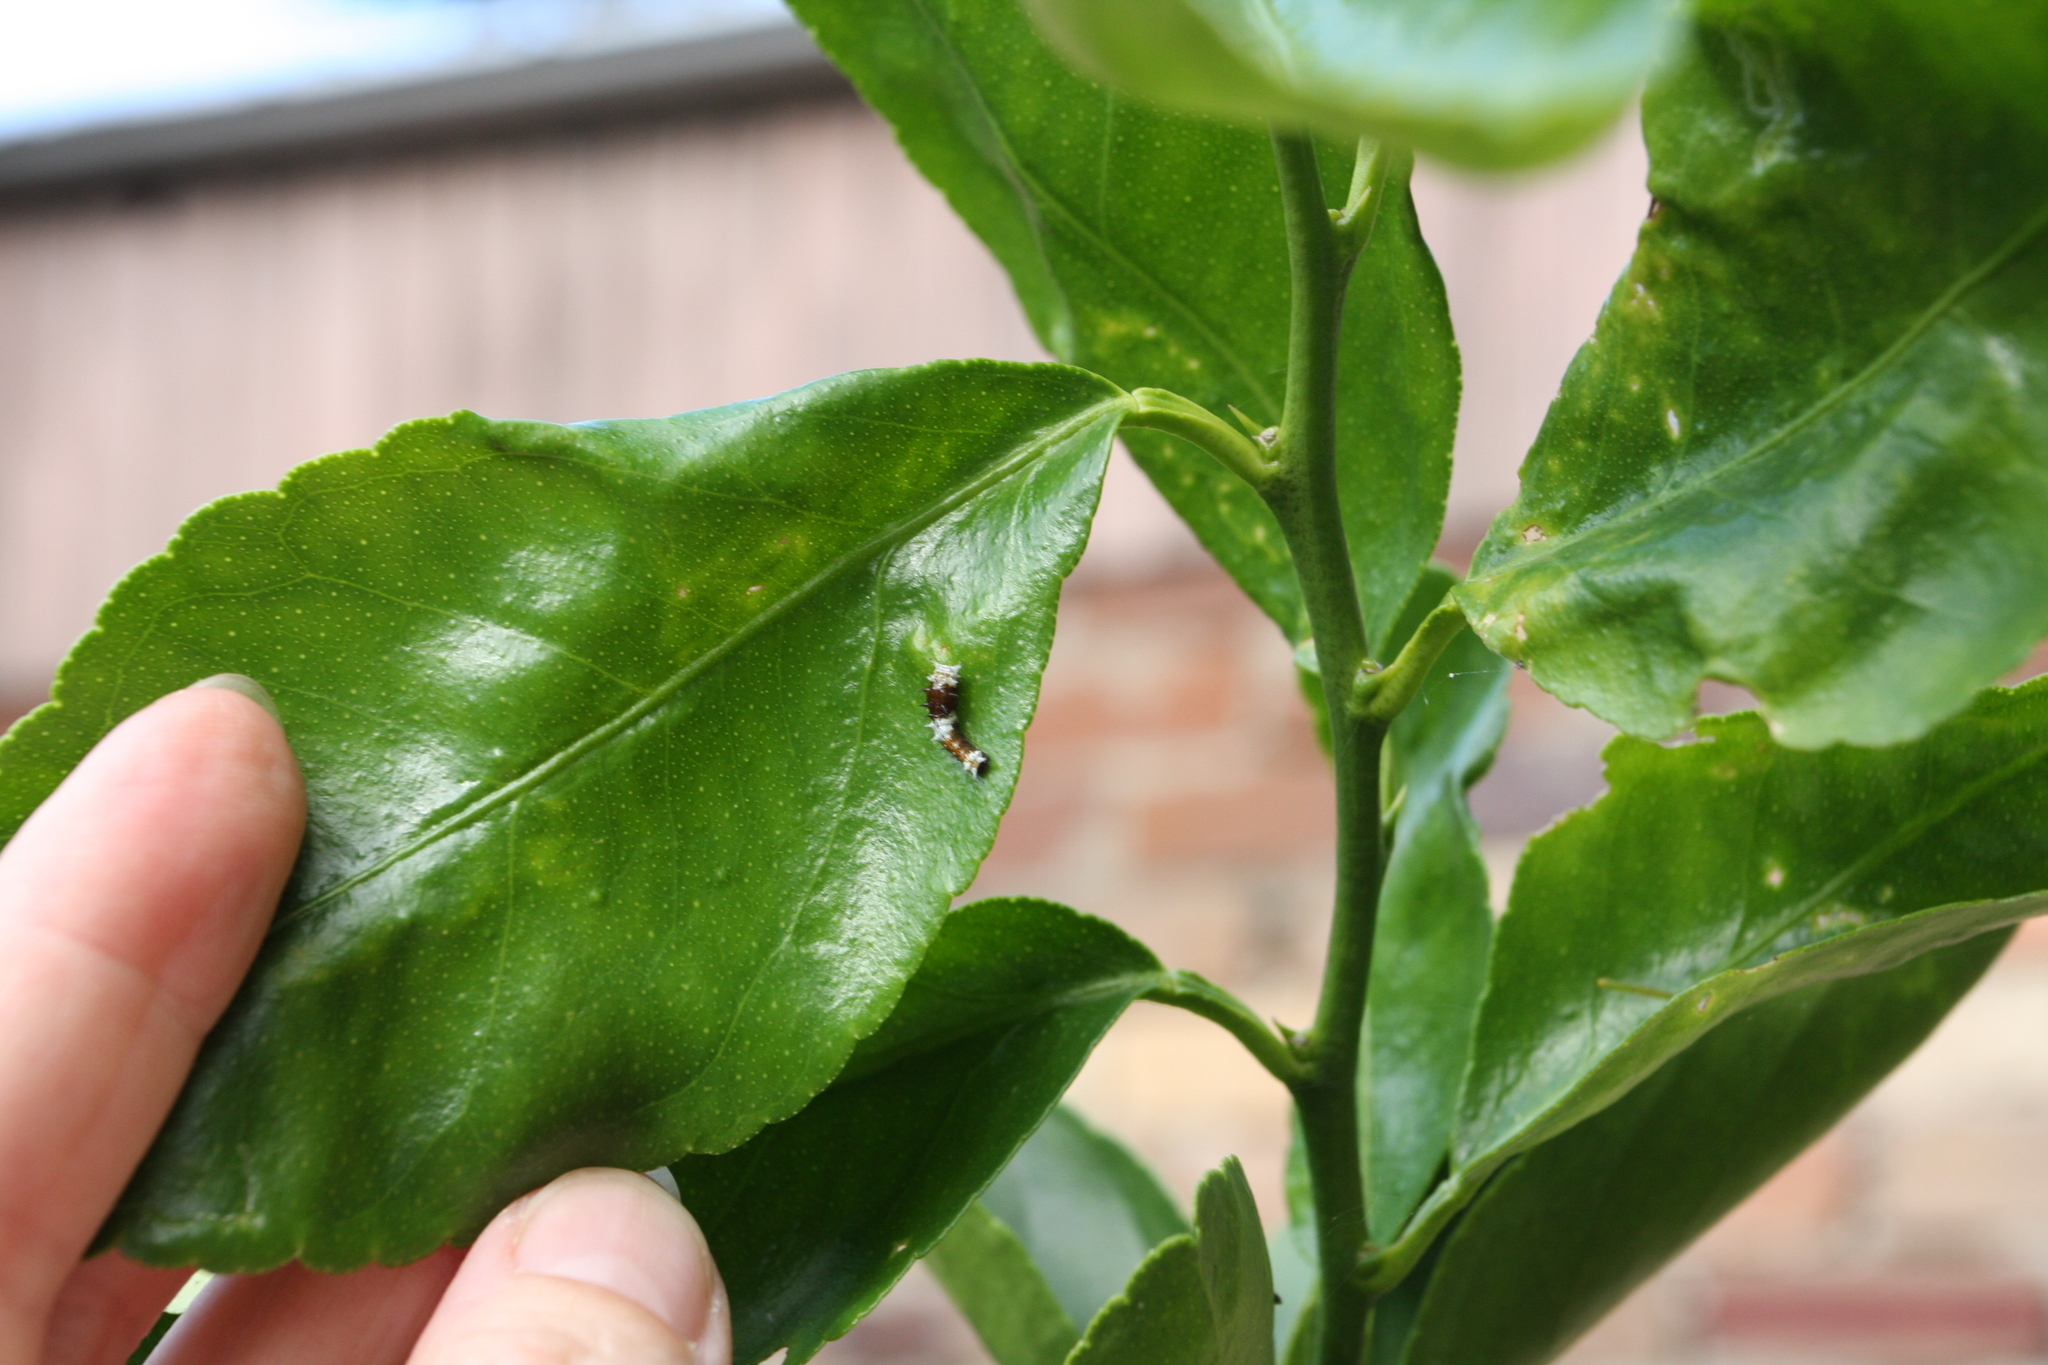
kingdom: Animalia
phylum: Arthropoda
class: Insecta
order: Lepidoptera
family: Papilionidae
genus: Papilio
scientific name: Papilio aegeus
